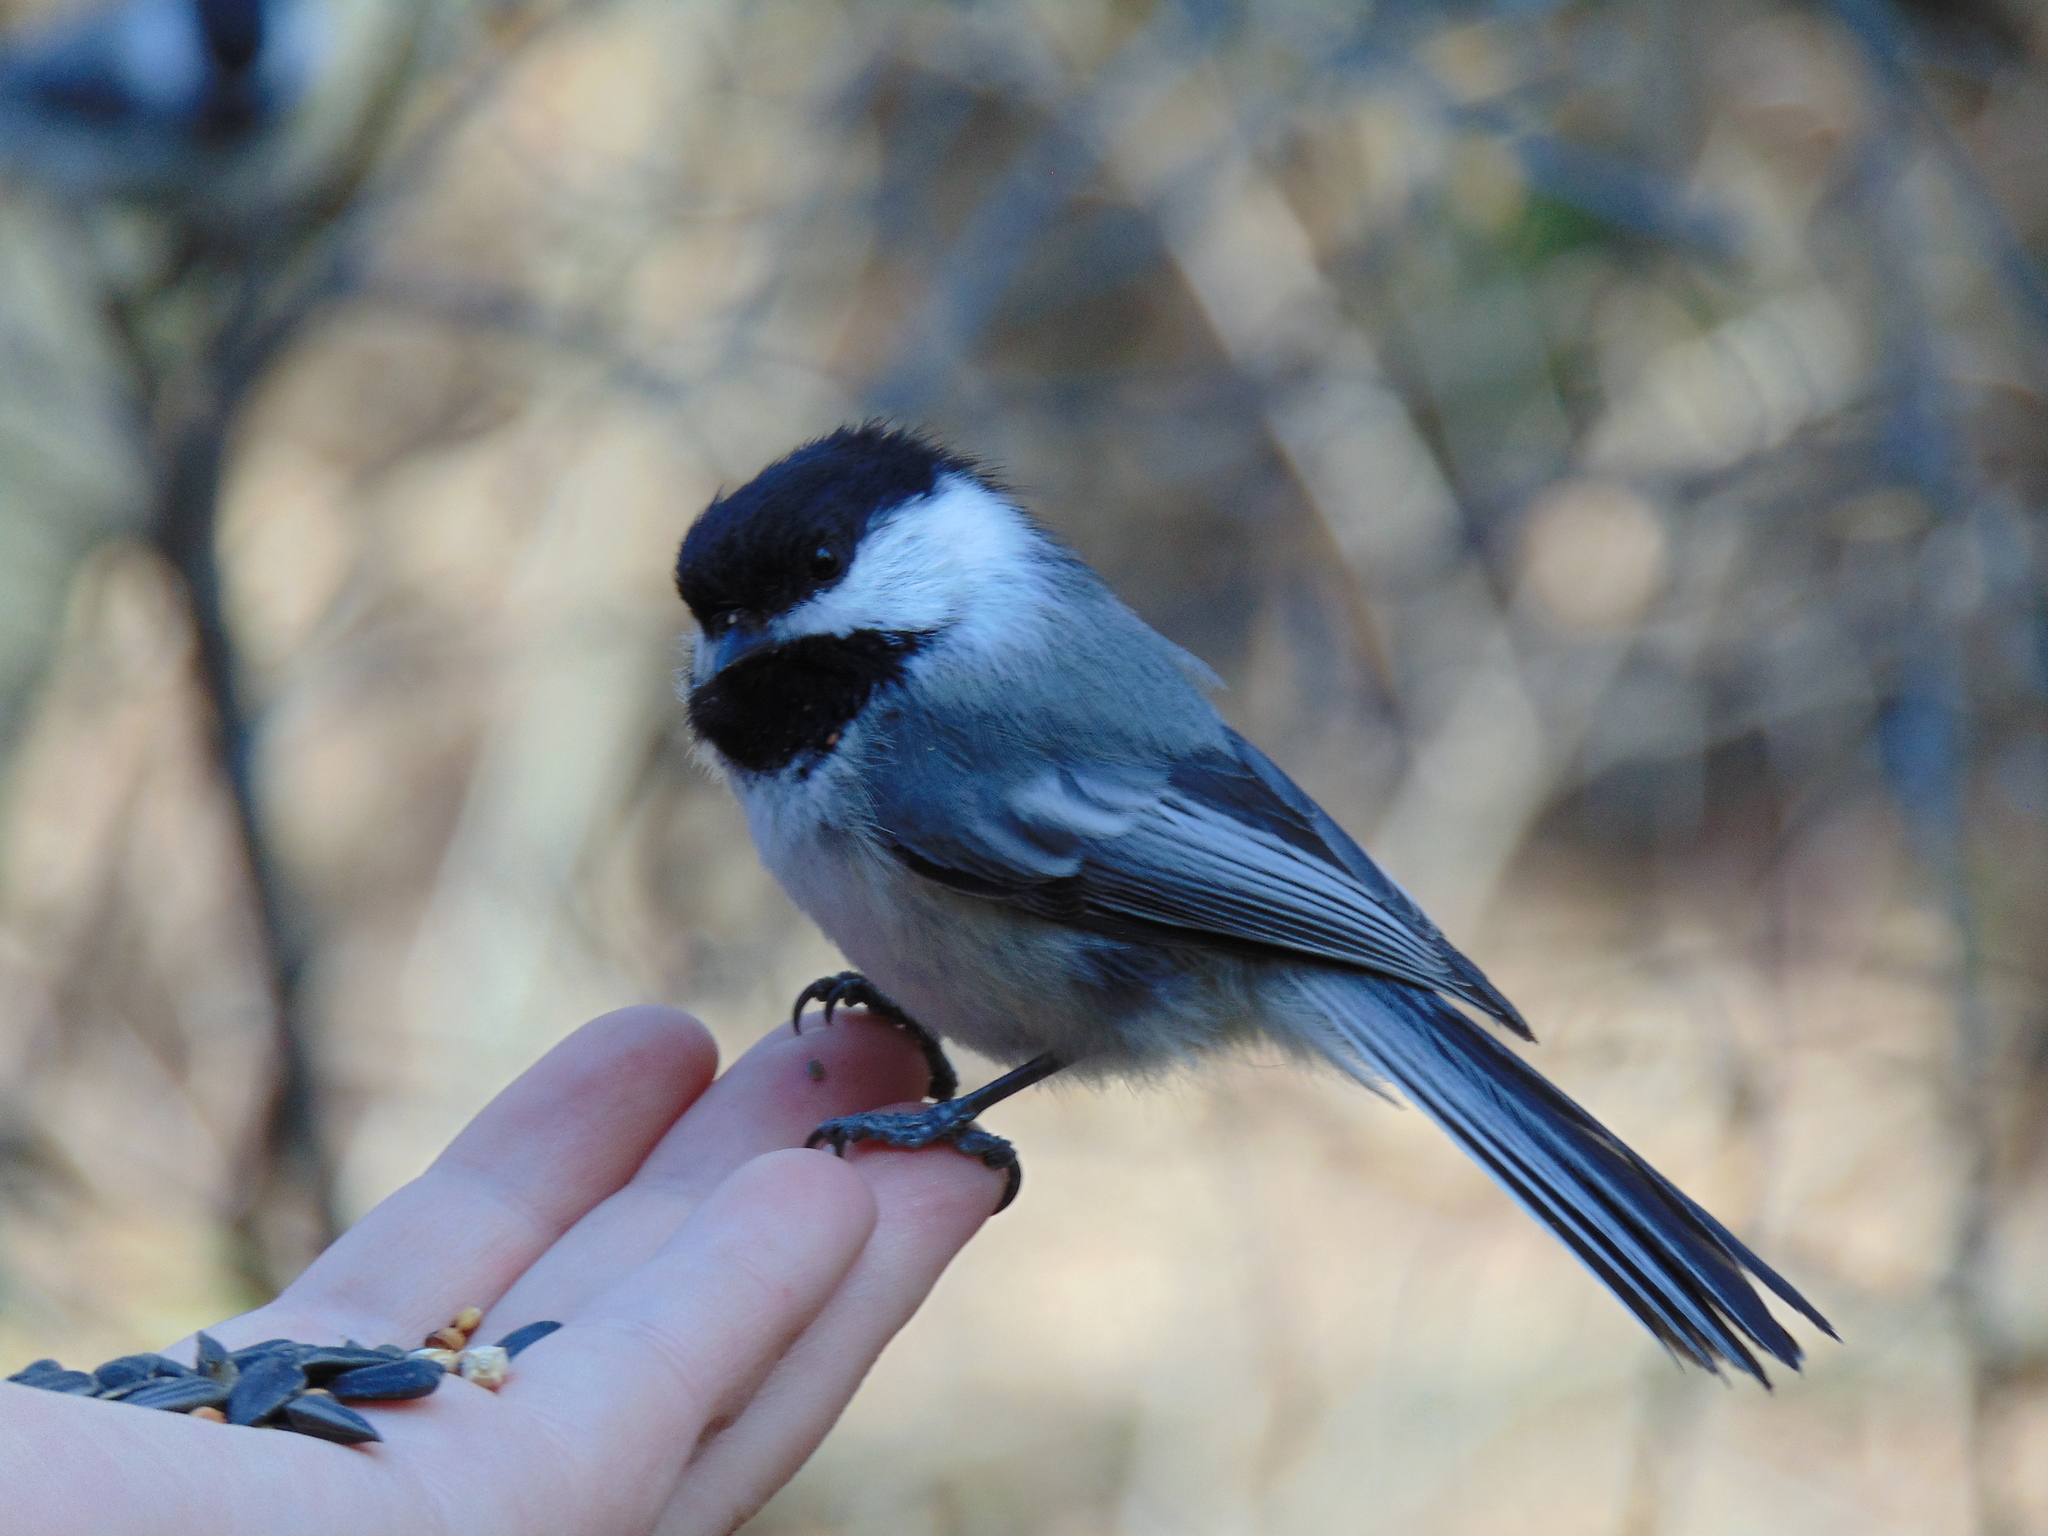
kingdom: Animalia
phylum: Chordata
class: Aves
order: Passeriformes
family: Paridae
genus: Poecile
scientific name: Poecile atricapillus
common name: Black-capped chickadee
